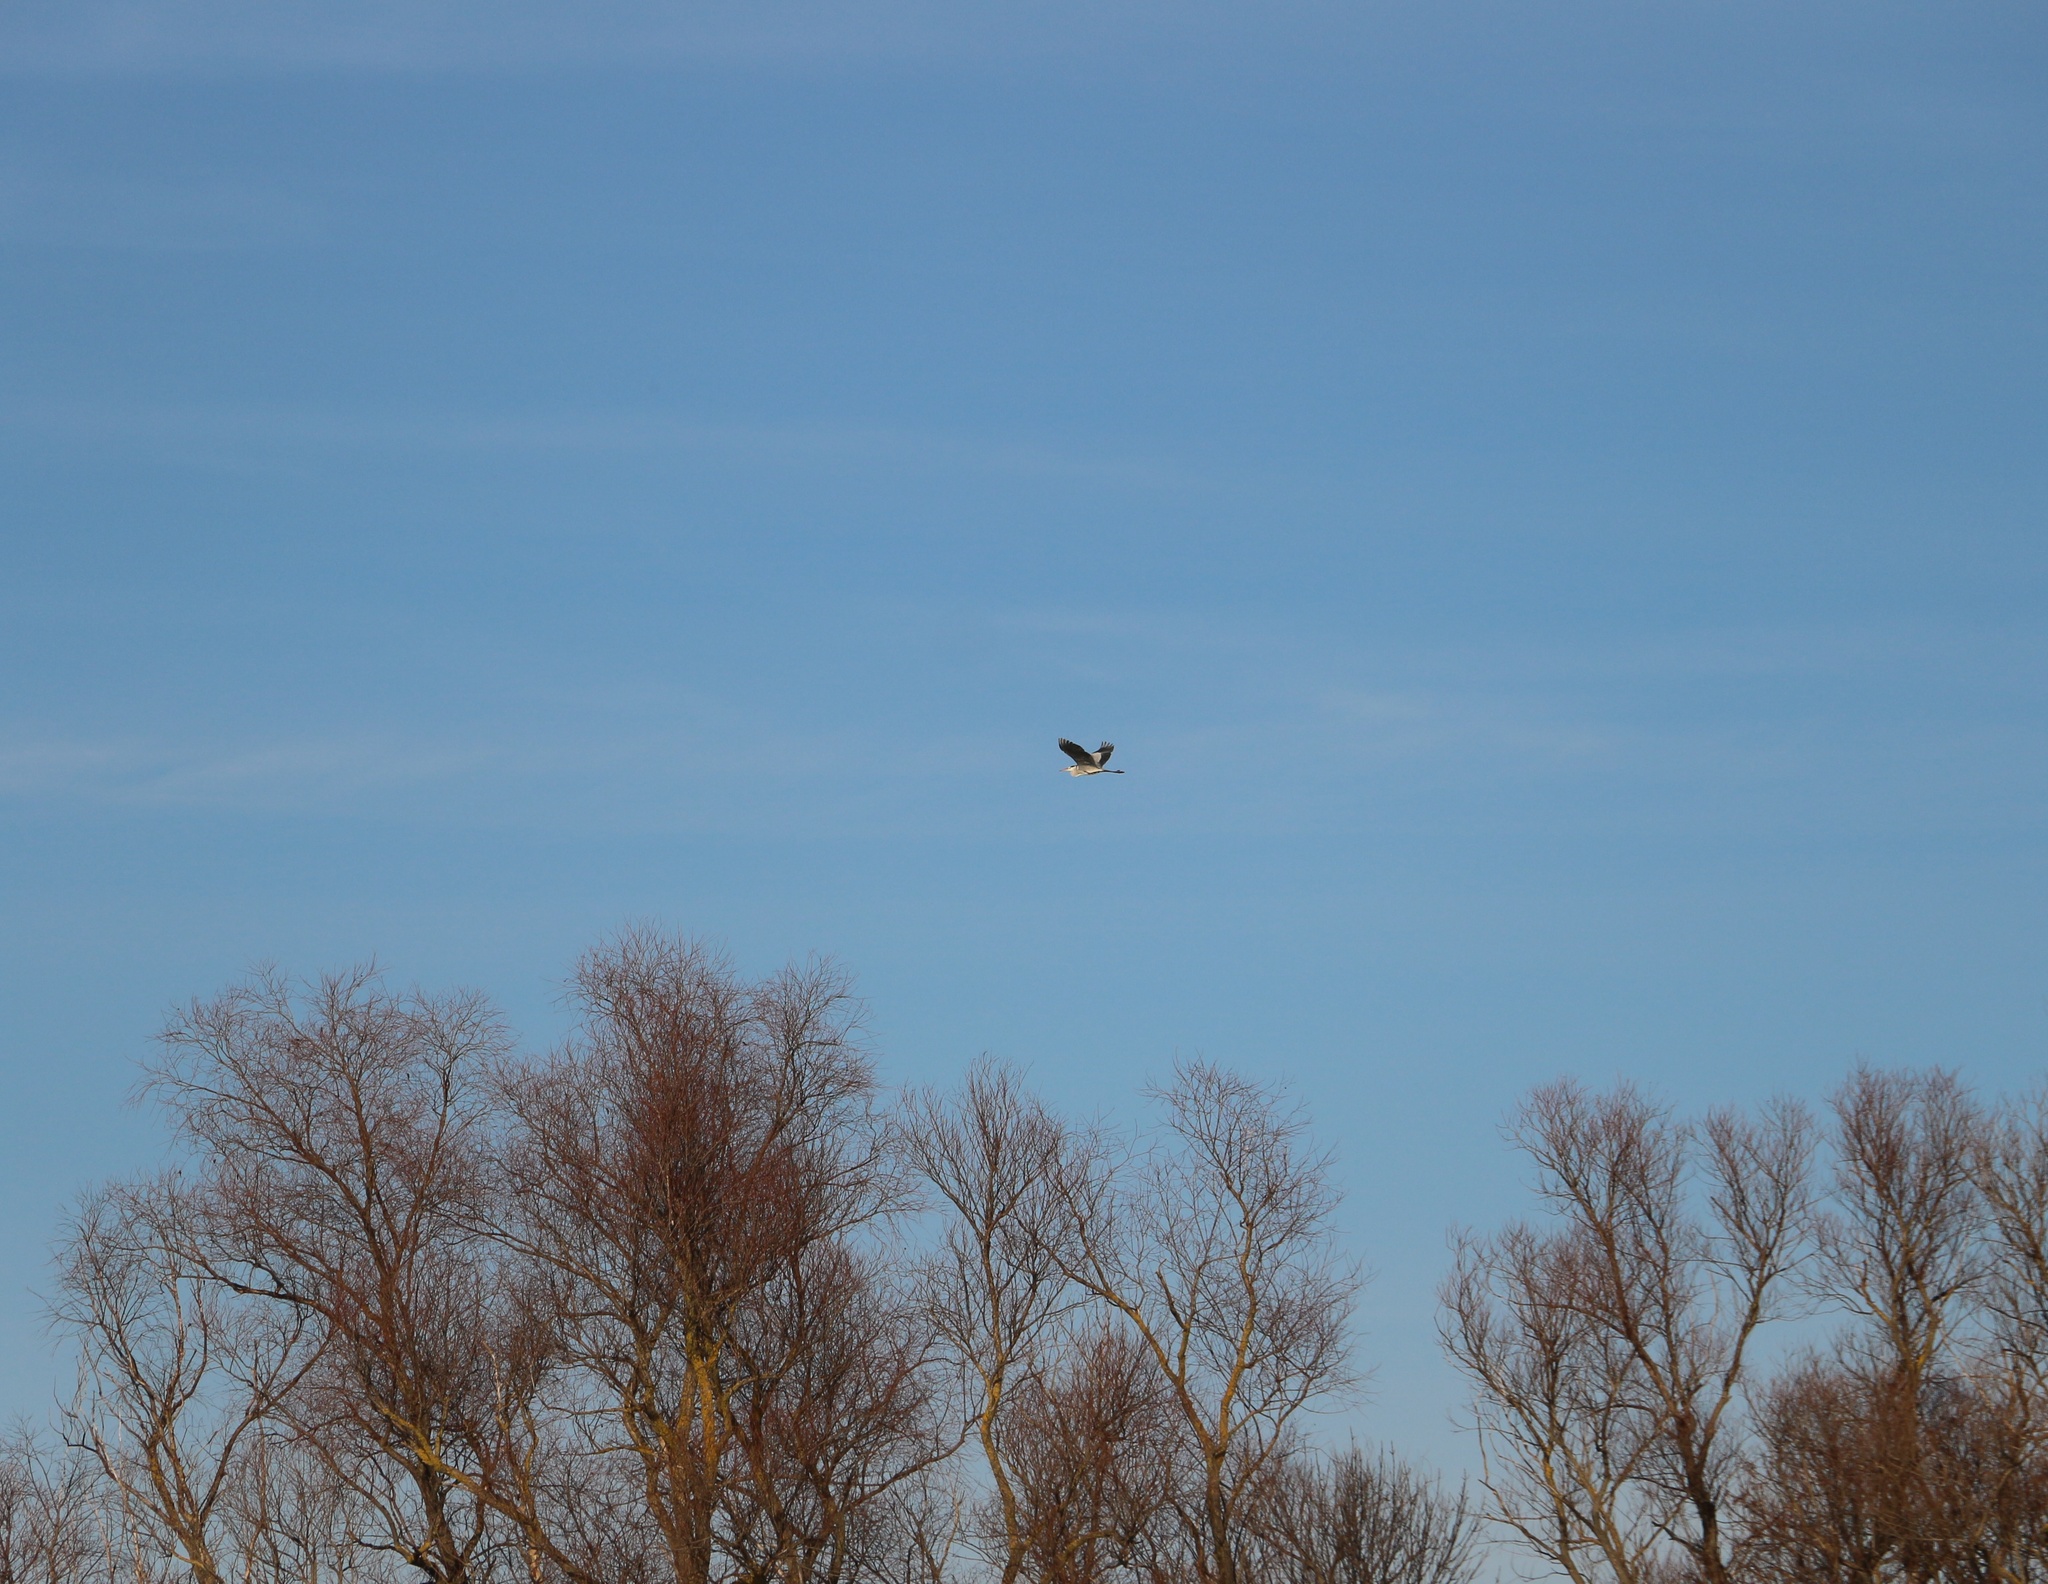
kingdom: Animalia
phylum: Chordata
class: Aves
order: Pelecaniformes
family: Ardeidae
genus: Ardea
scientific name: Ardea cinerea
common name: Grey heron
